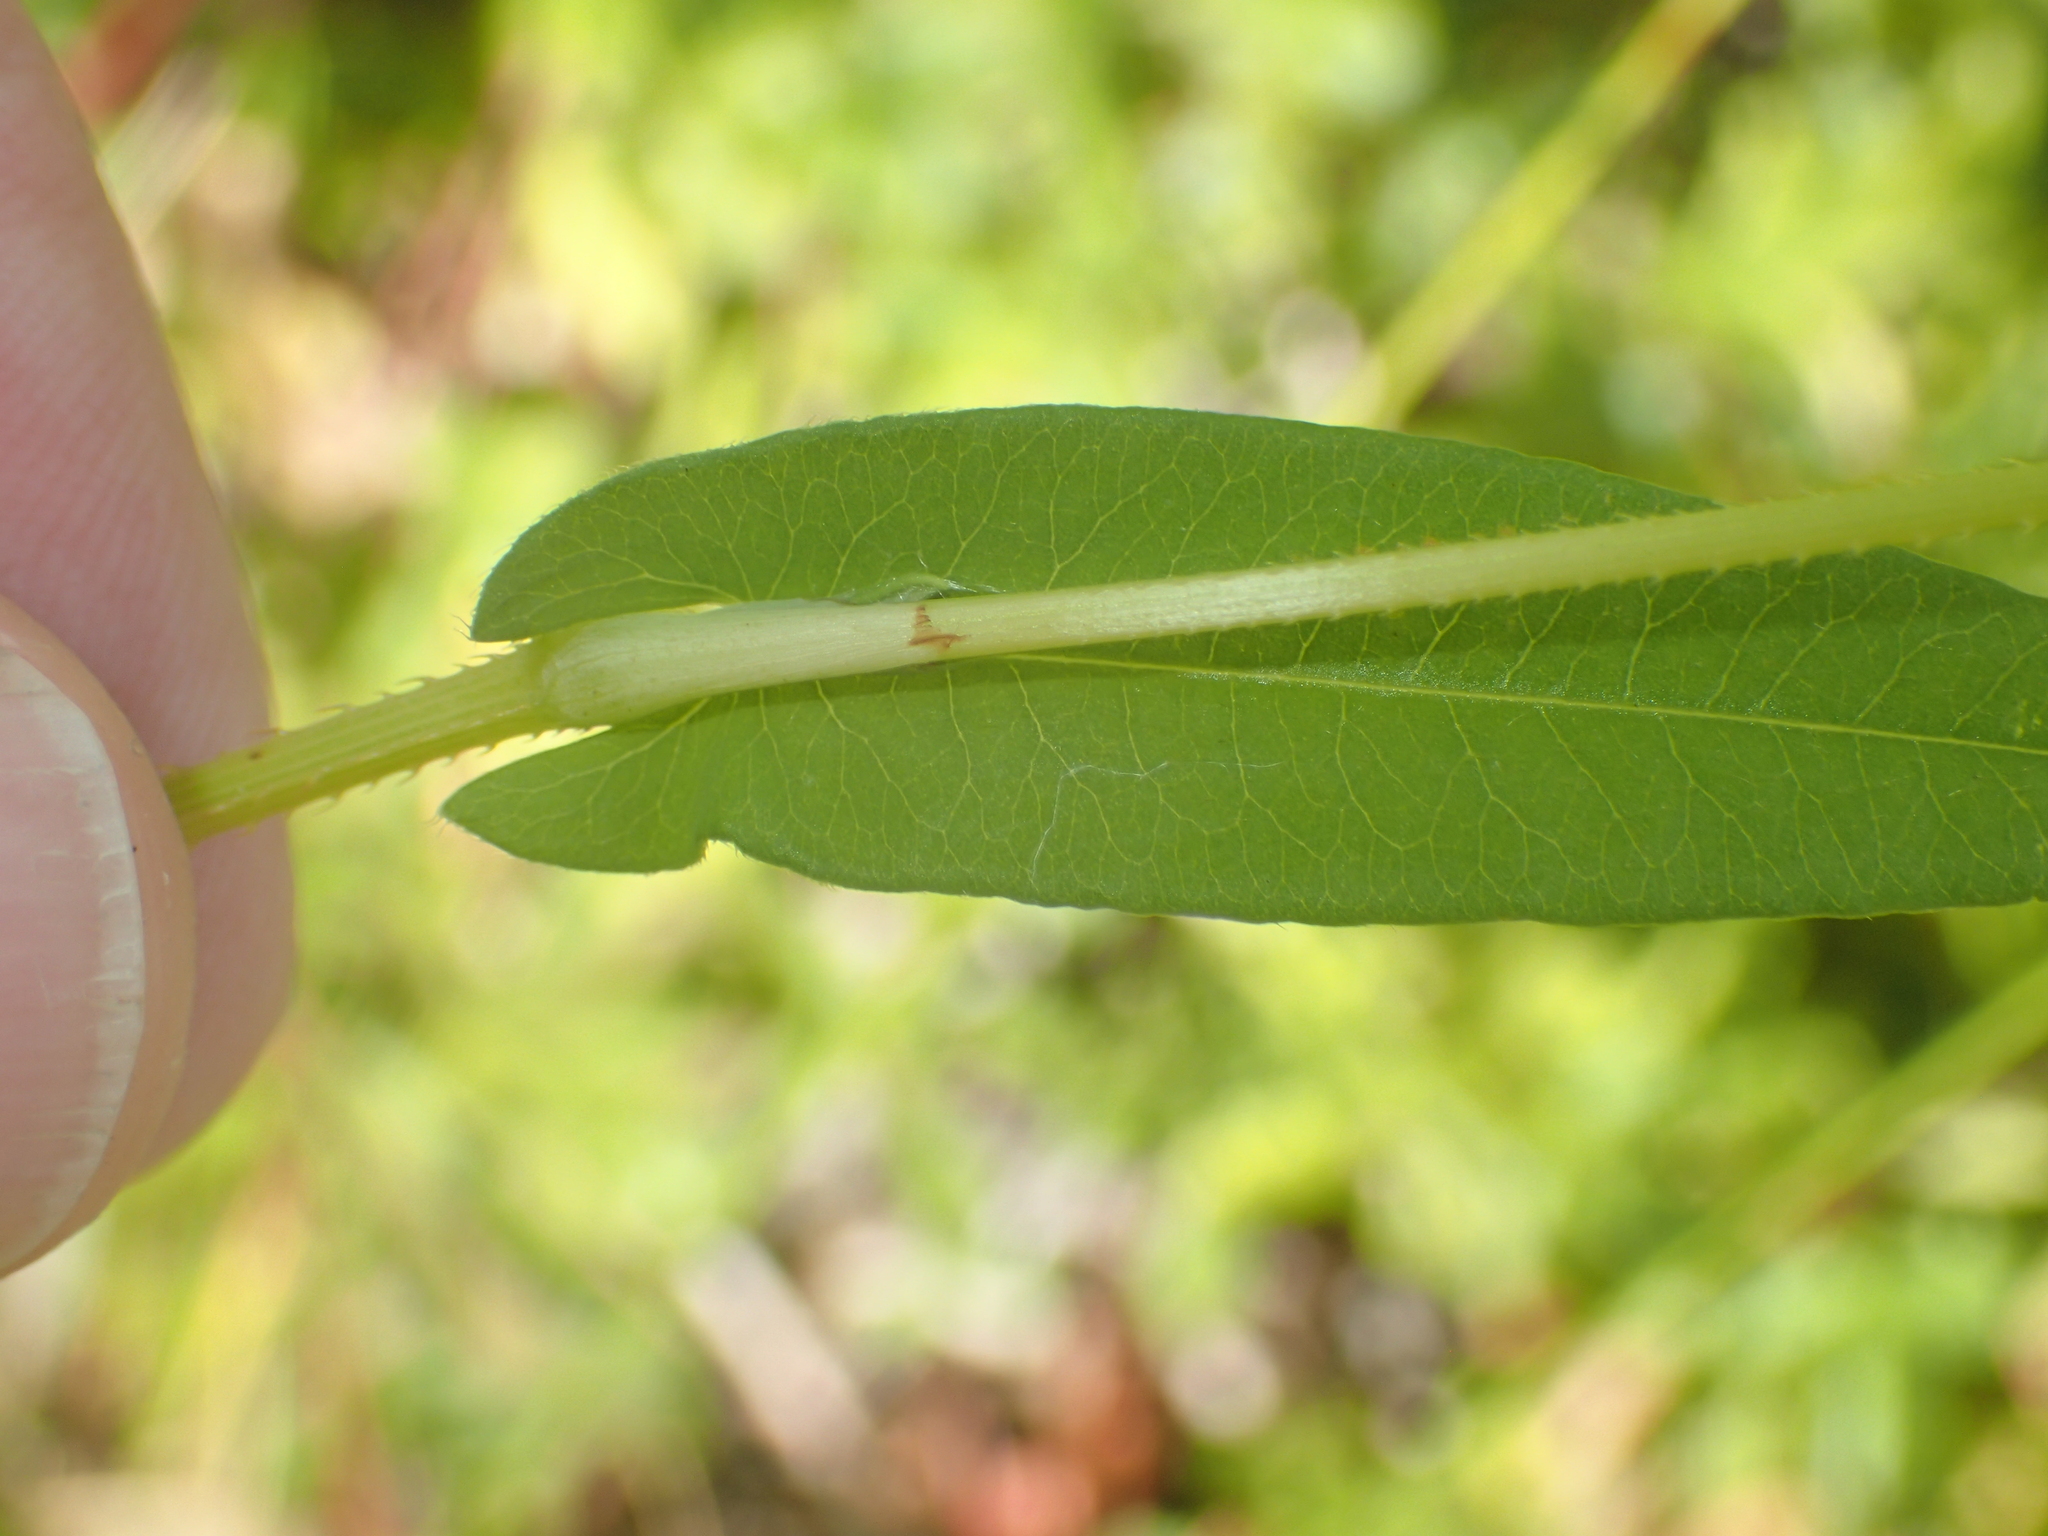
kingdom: Plantae
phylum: Tracheophyta
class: Magnoliopsida
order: Caryophyllales
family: Polygonaceae
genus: Persicaria
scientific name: Persicaria sagittata
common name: American tearthumb
